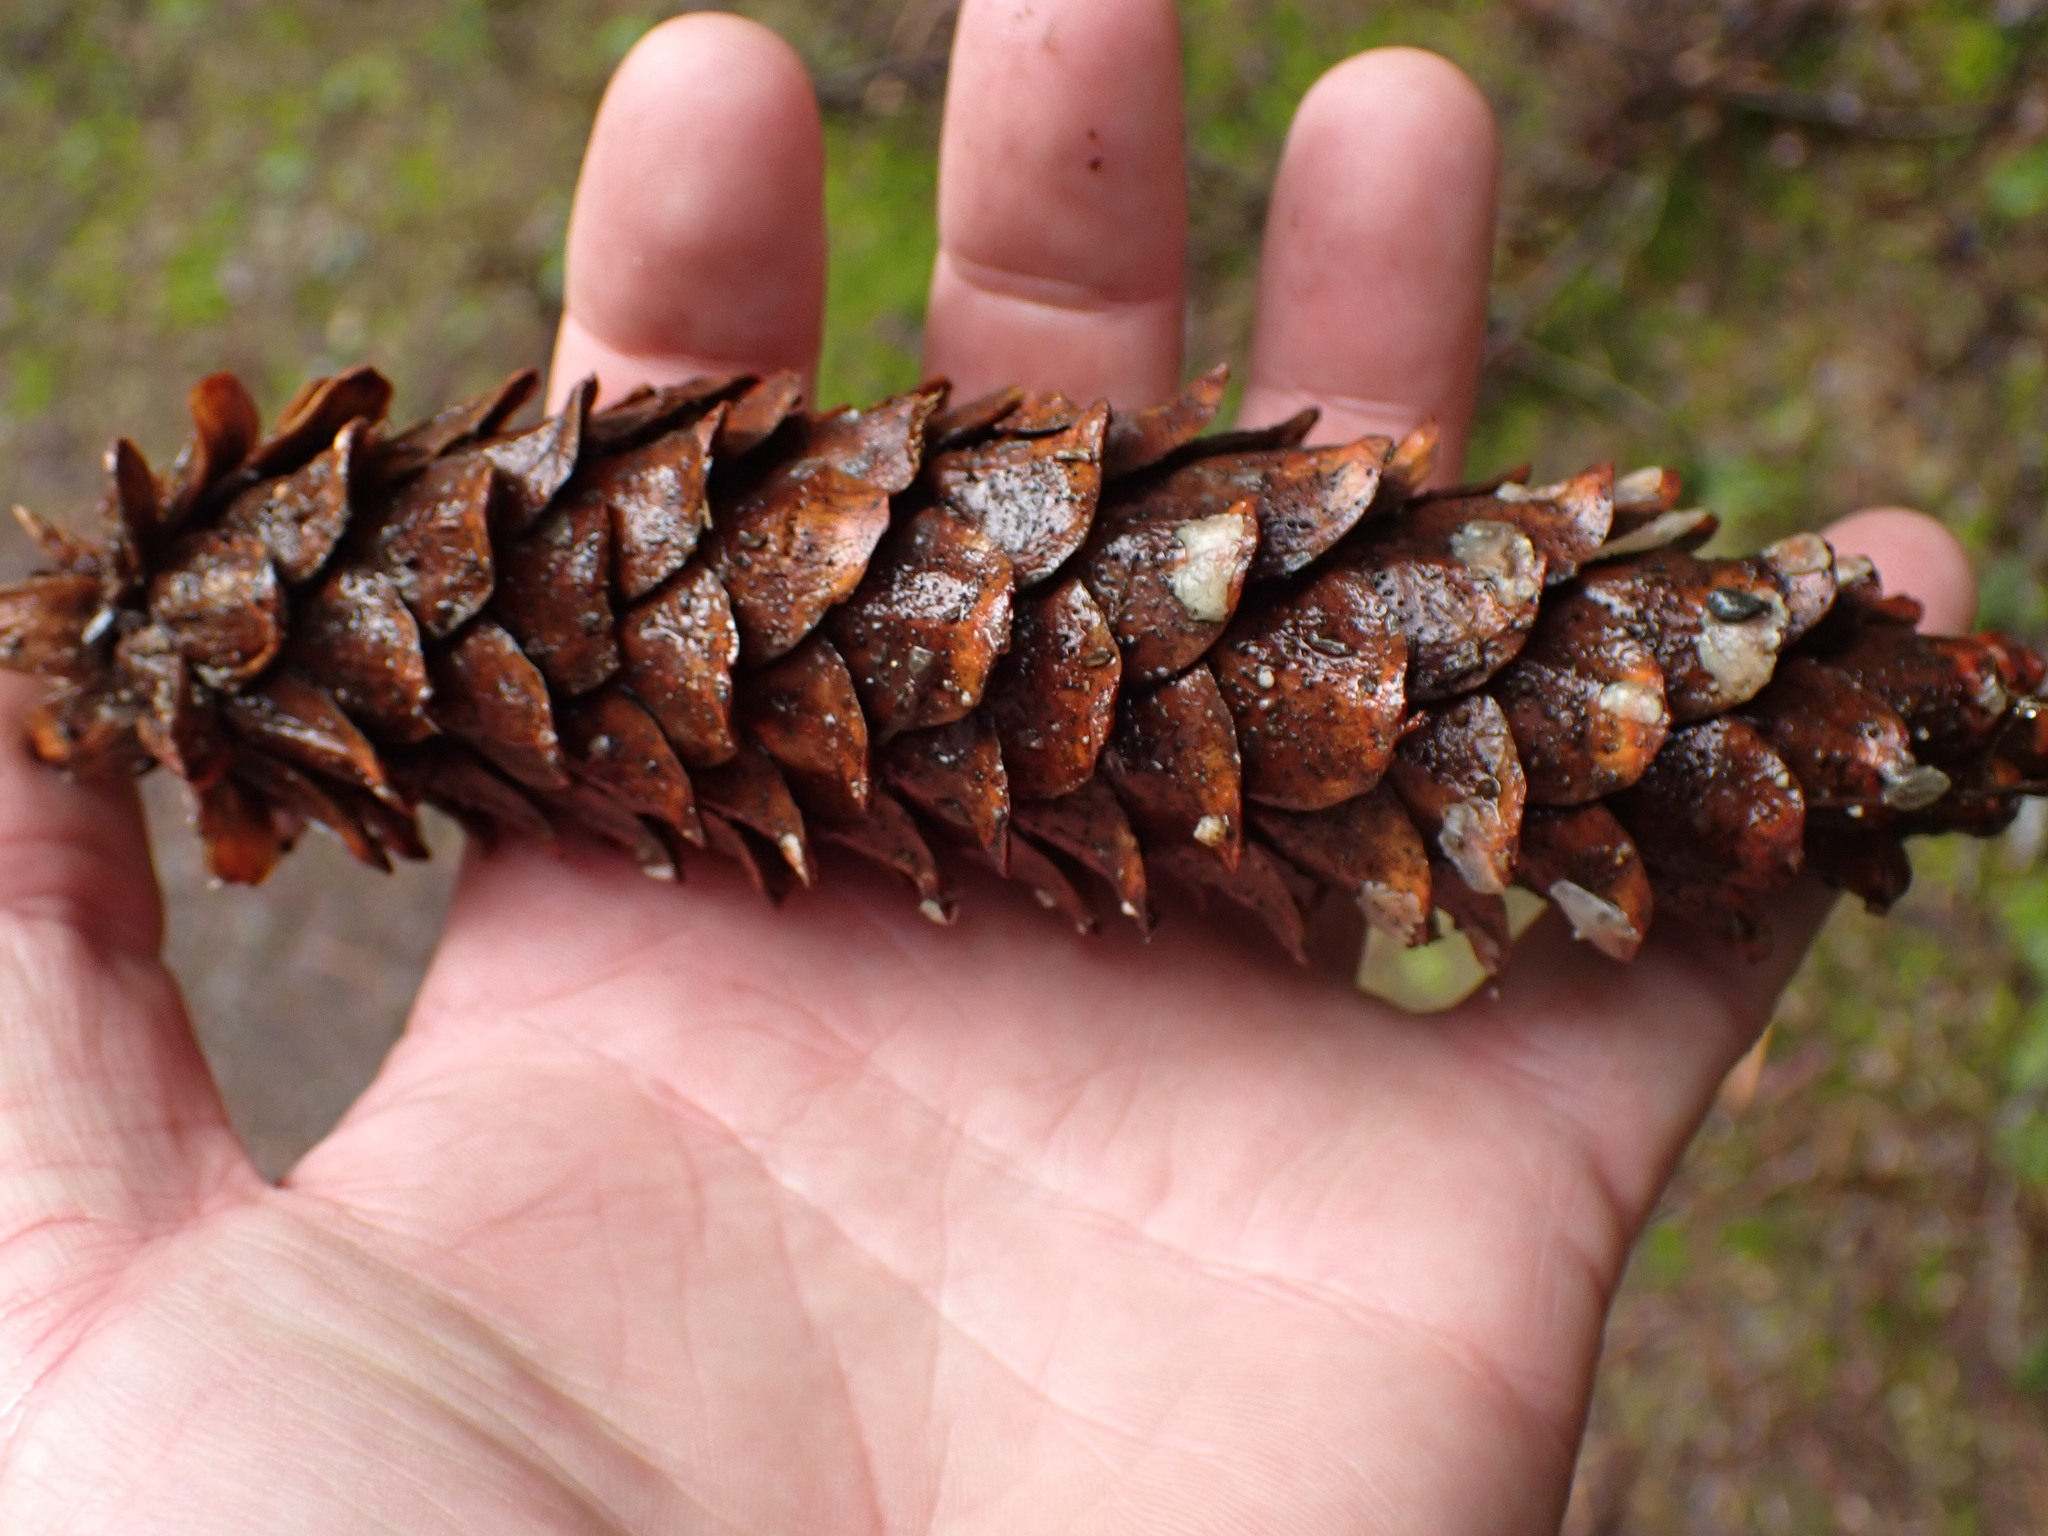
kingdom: Plantae
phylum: Tracheophyta
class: Pinopsida
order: Pinales
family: Pinaceae
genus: Pinus
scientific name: Pinus monticola
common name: Western white pine
